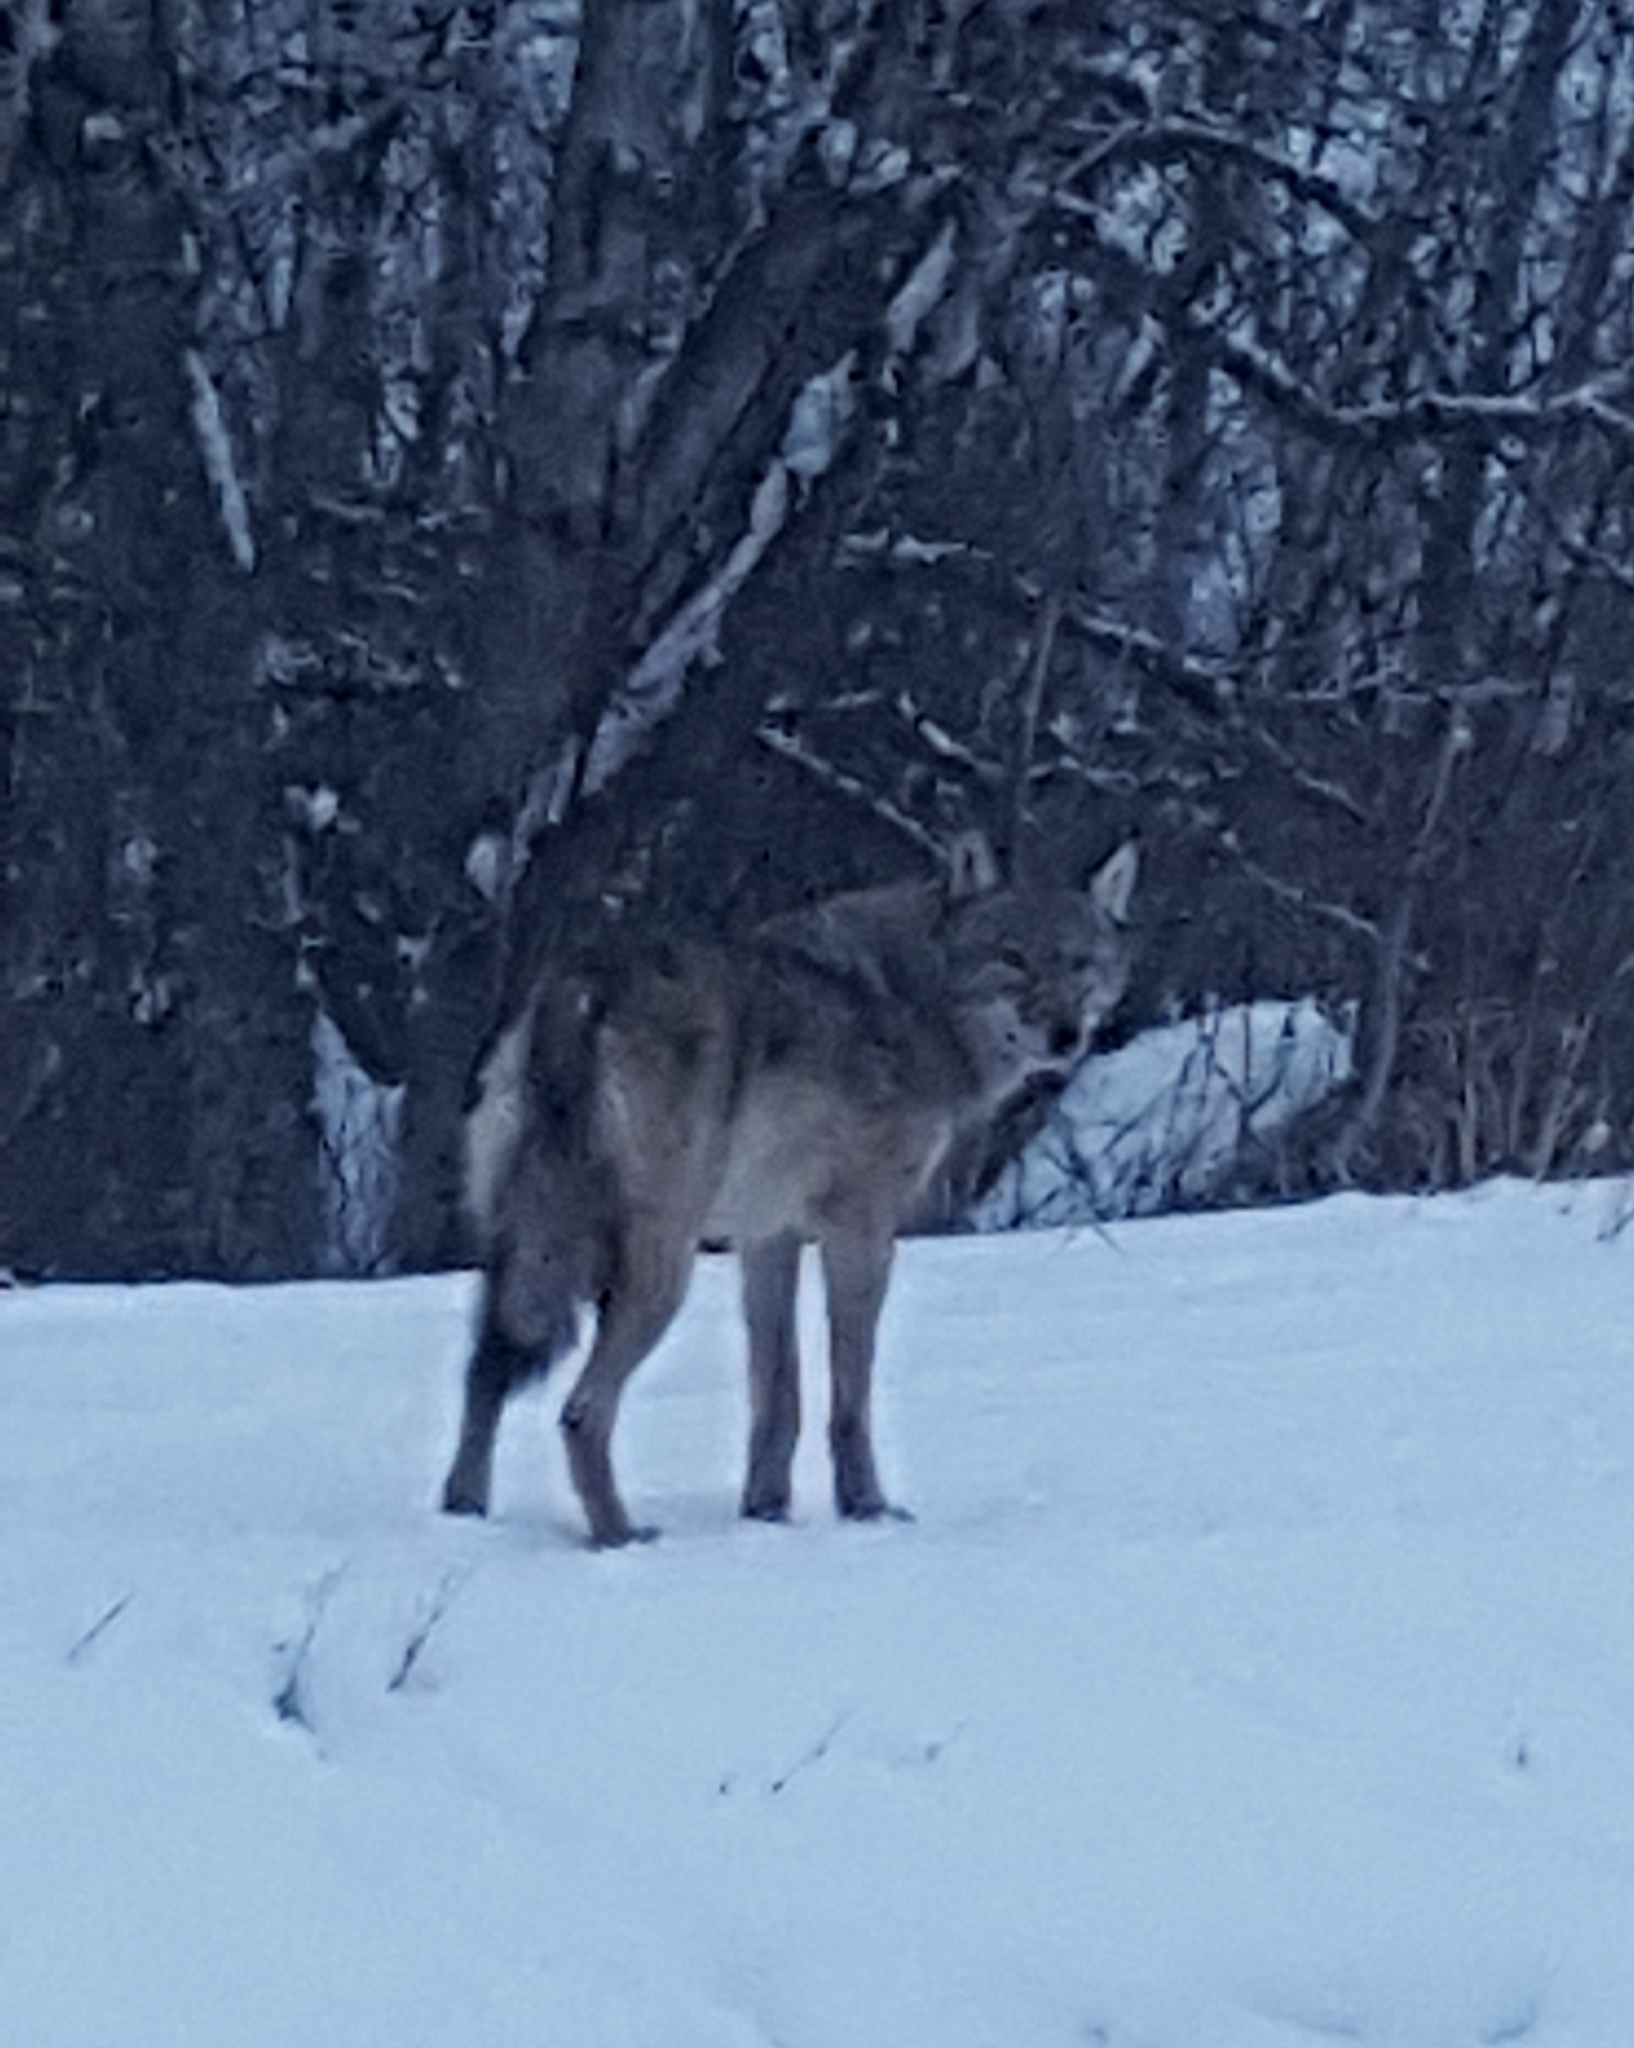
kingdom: Animalia
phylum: Chordata
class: Mammalia
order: Carnivora
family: Canidae
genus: Canis
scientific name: Canis latrans
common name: Coyote
